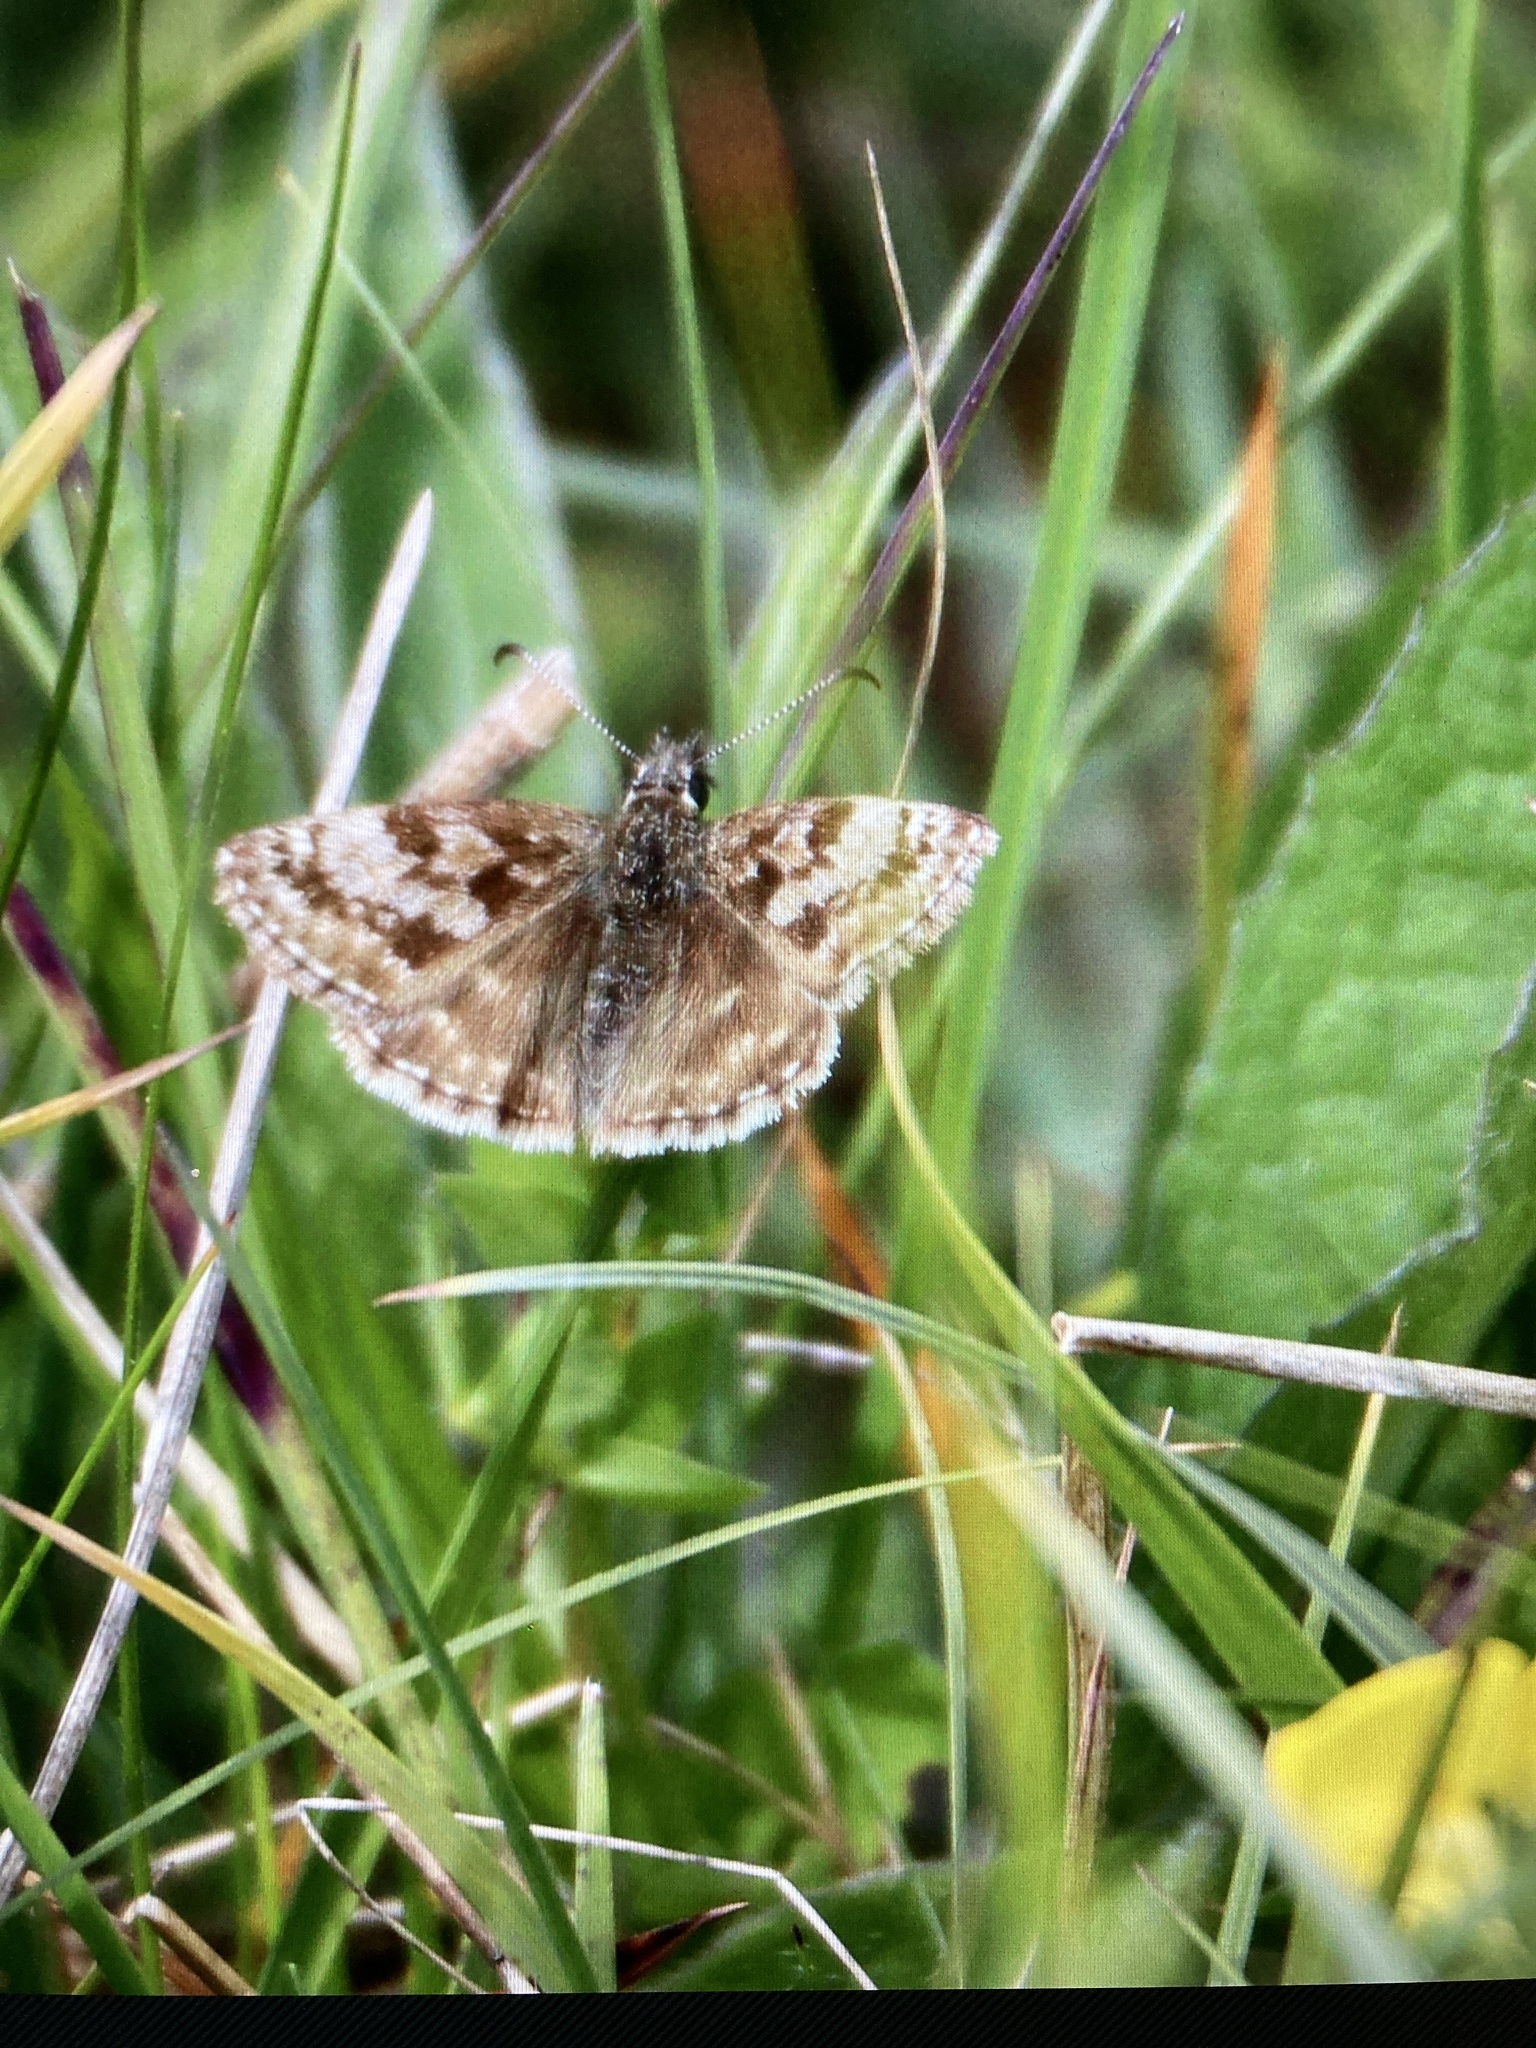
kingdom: Animalia
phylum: Arthropoda
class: Insecta
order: Lepidoptera
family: Hesperiidae
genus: Erynnis
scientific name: Erynnis tages
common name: Dingy skipper
